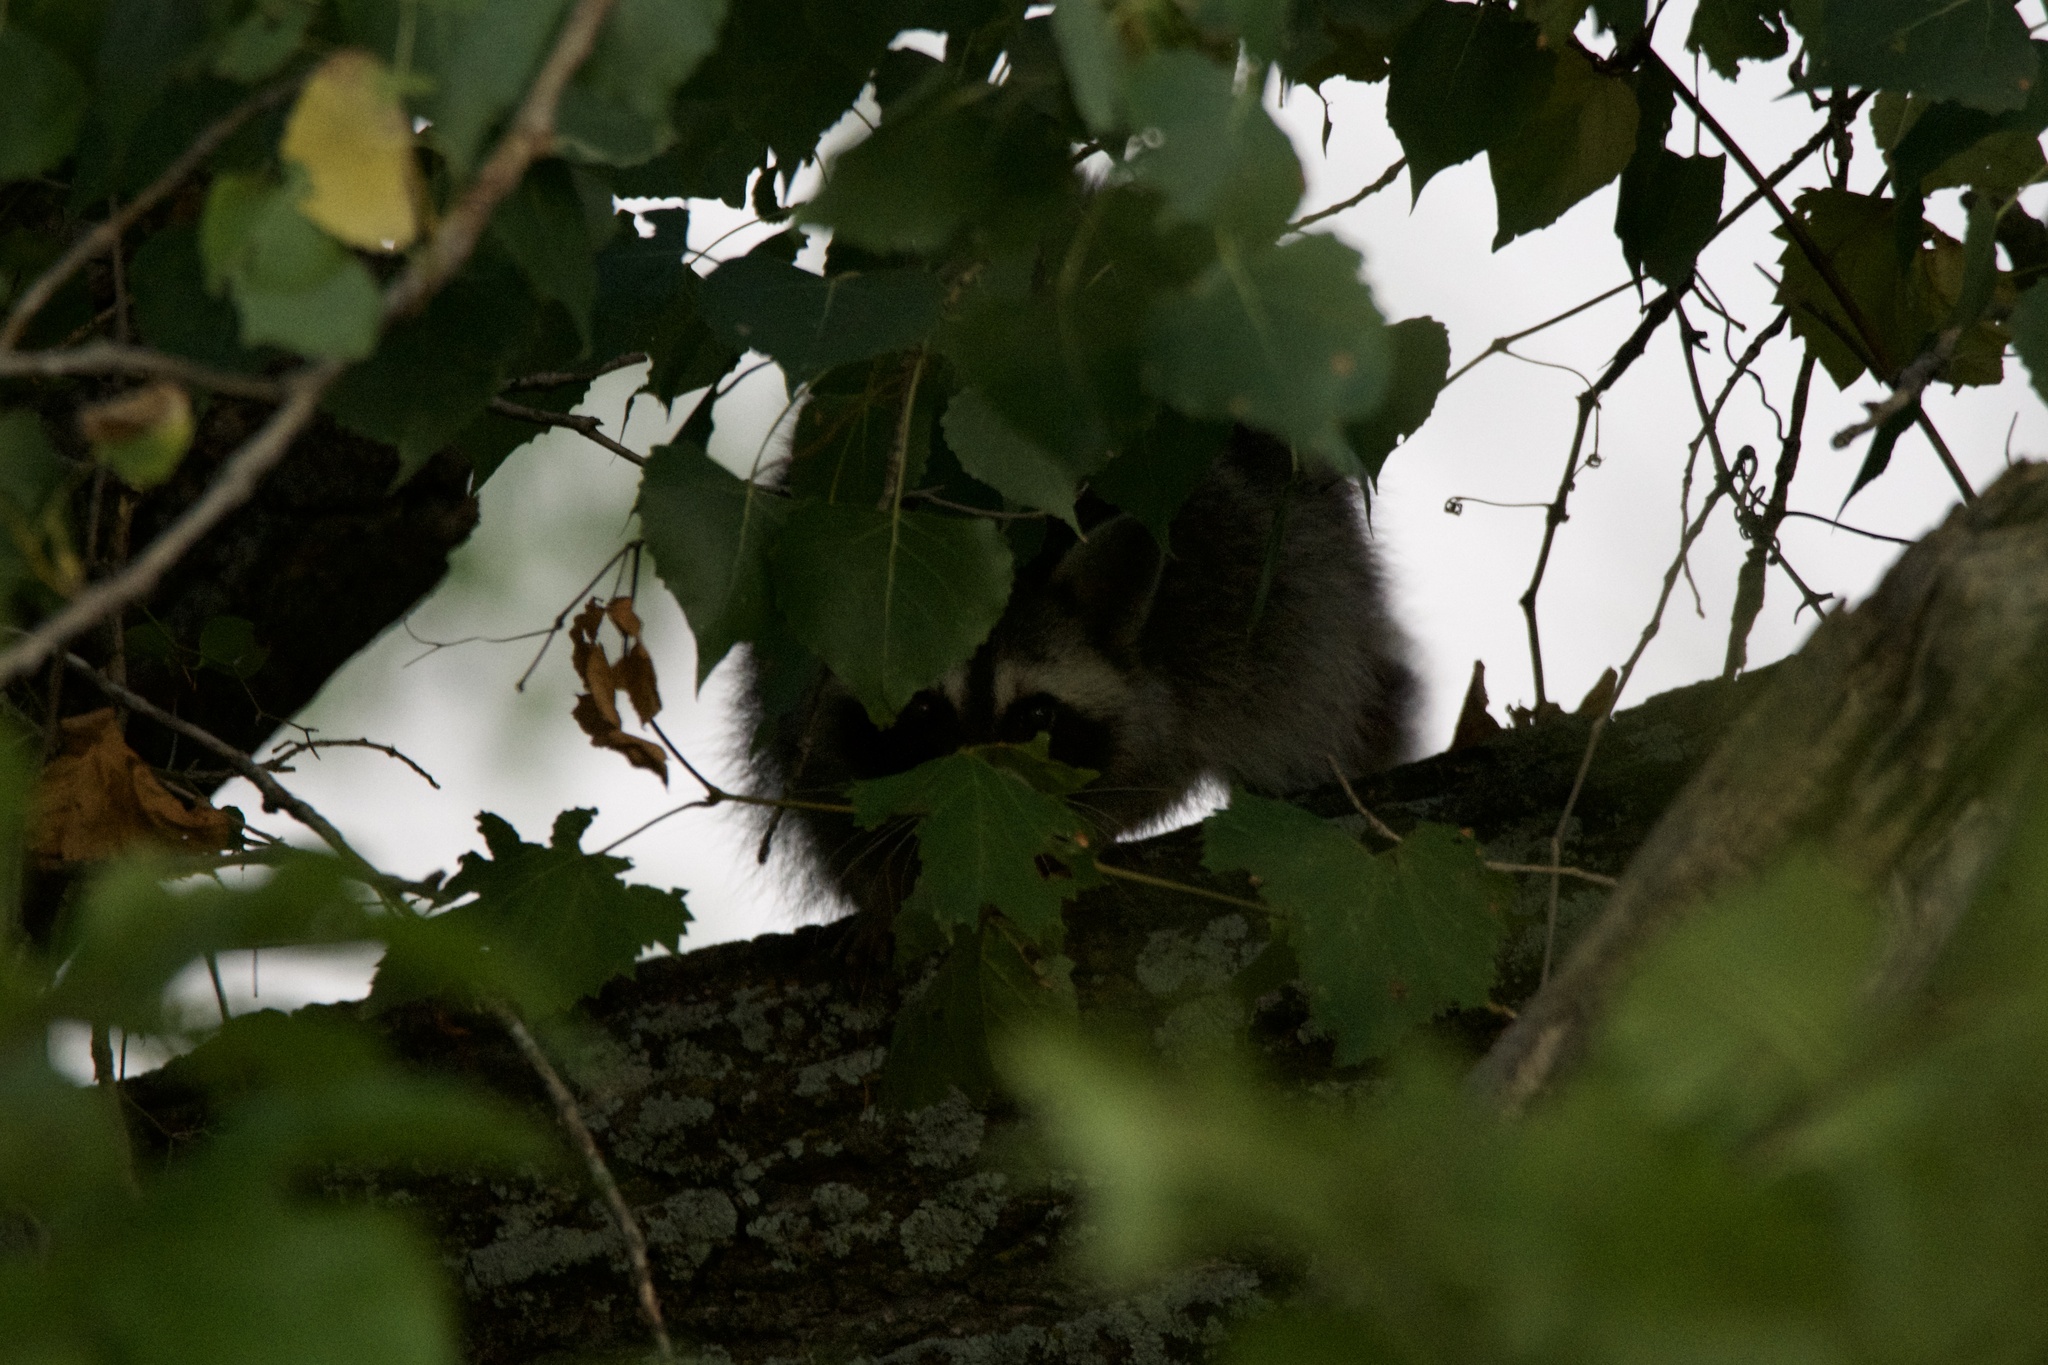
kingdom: Animalia
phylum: Chordata
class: Mammalia
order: Carnivora
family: Procyonidae
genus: Procyon
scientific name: Procyon lotor
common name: Raccoon
